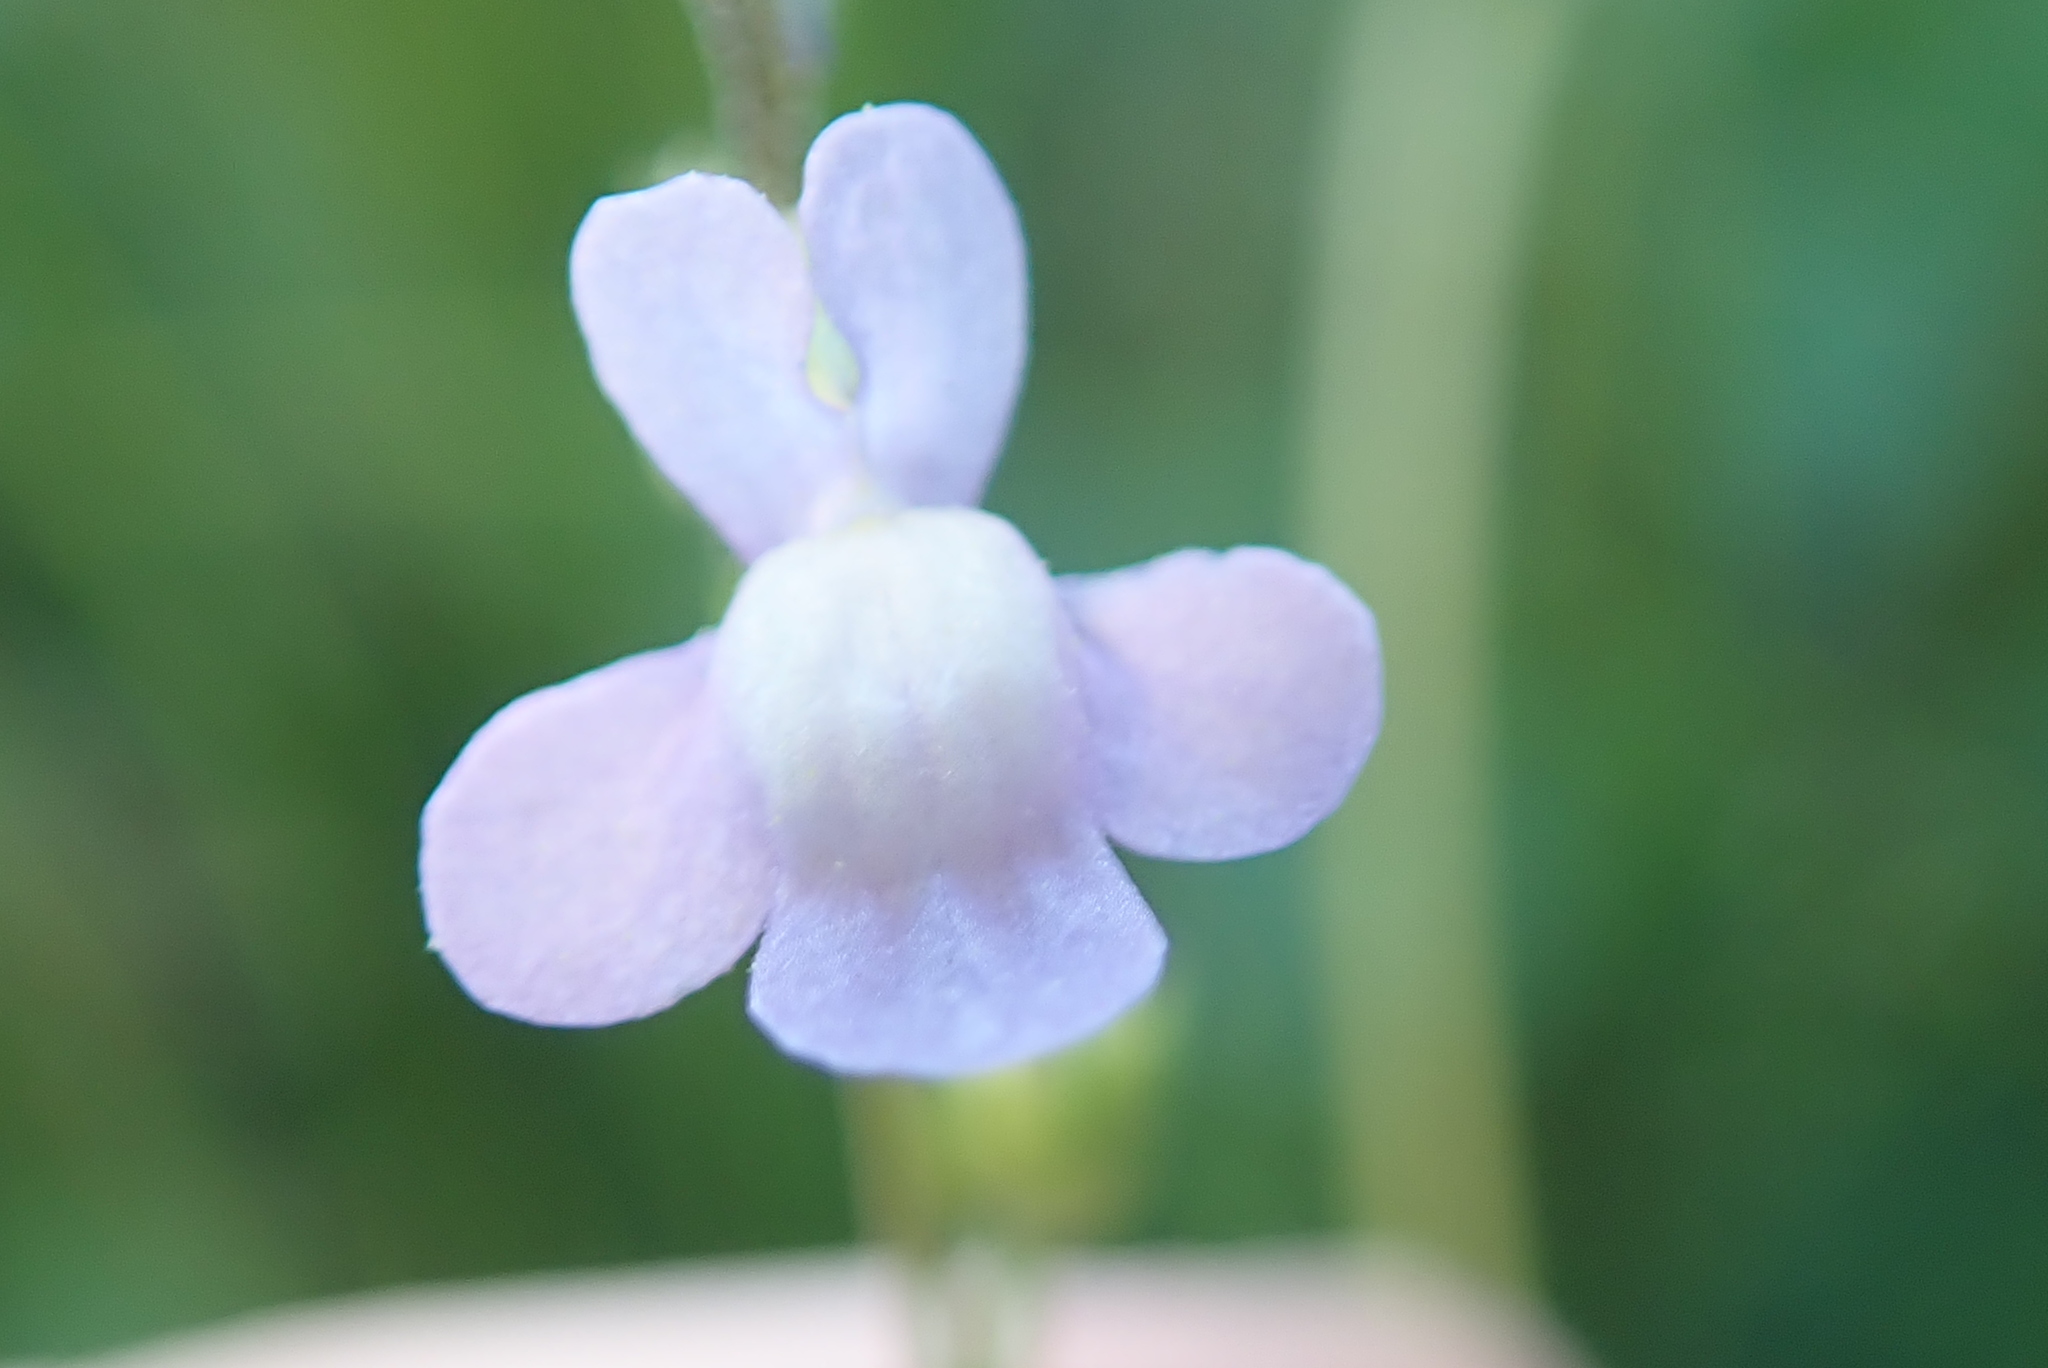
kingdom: Plantae
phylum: Tracheophyta
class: Magnoliopsida
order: Lamiales
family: Plantaginaceae
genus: Nuttallanthus
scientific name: Nuttallanthus canadensis
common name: Blue toadflax
